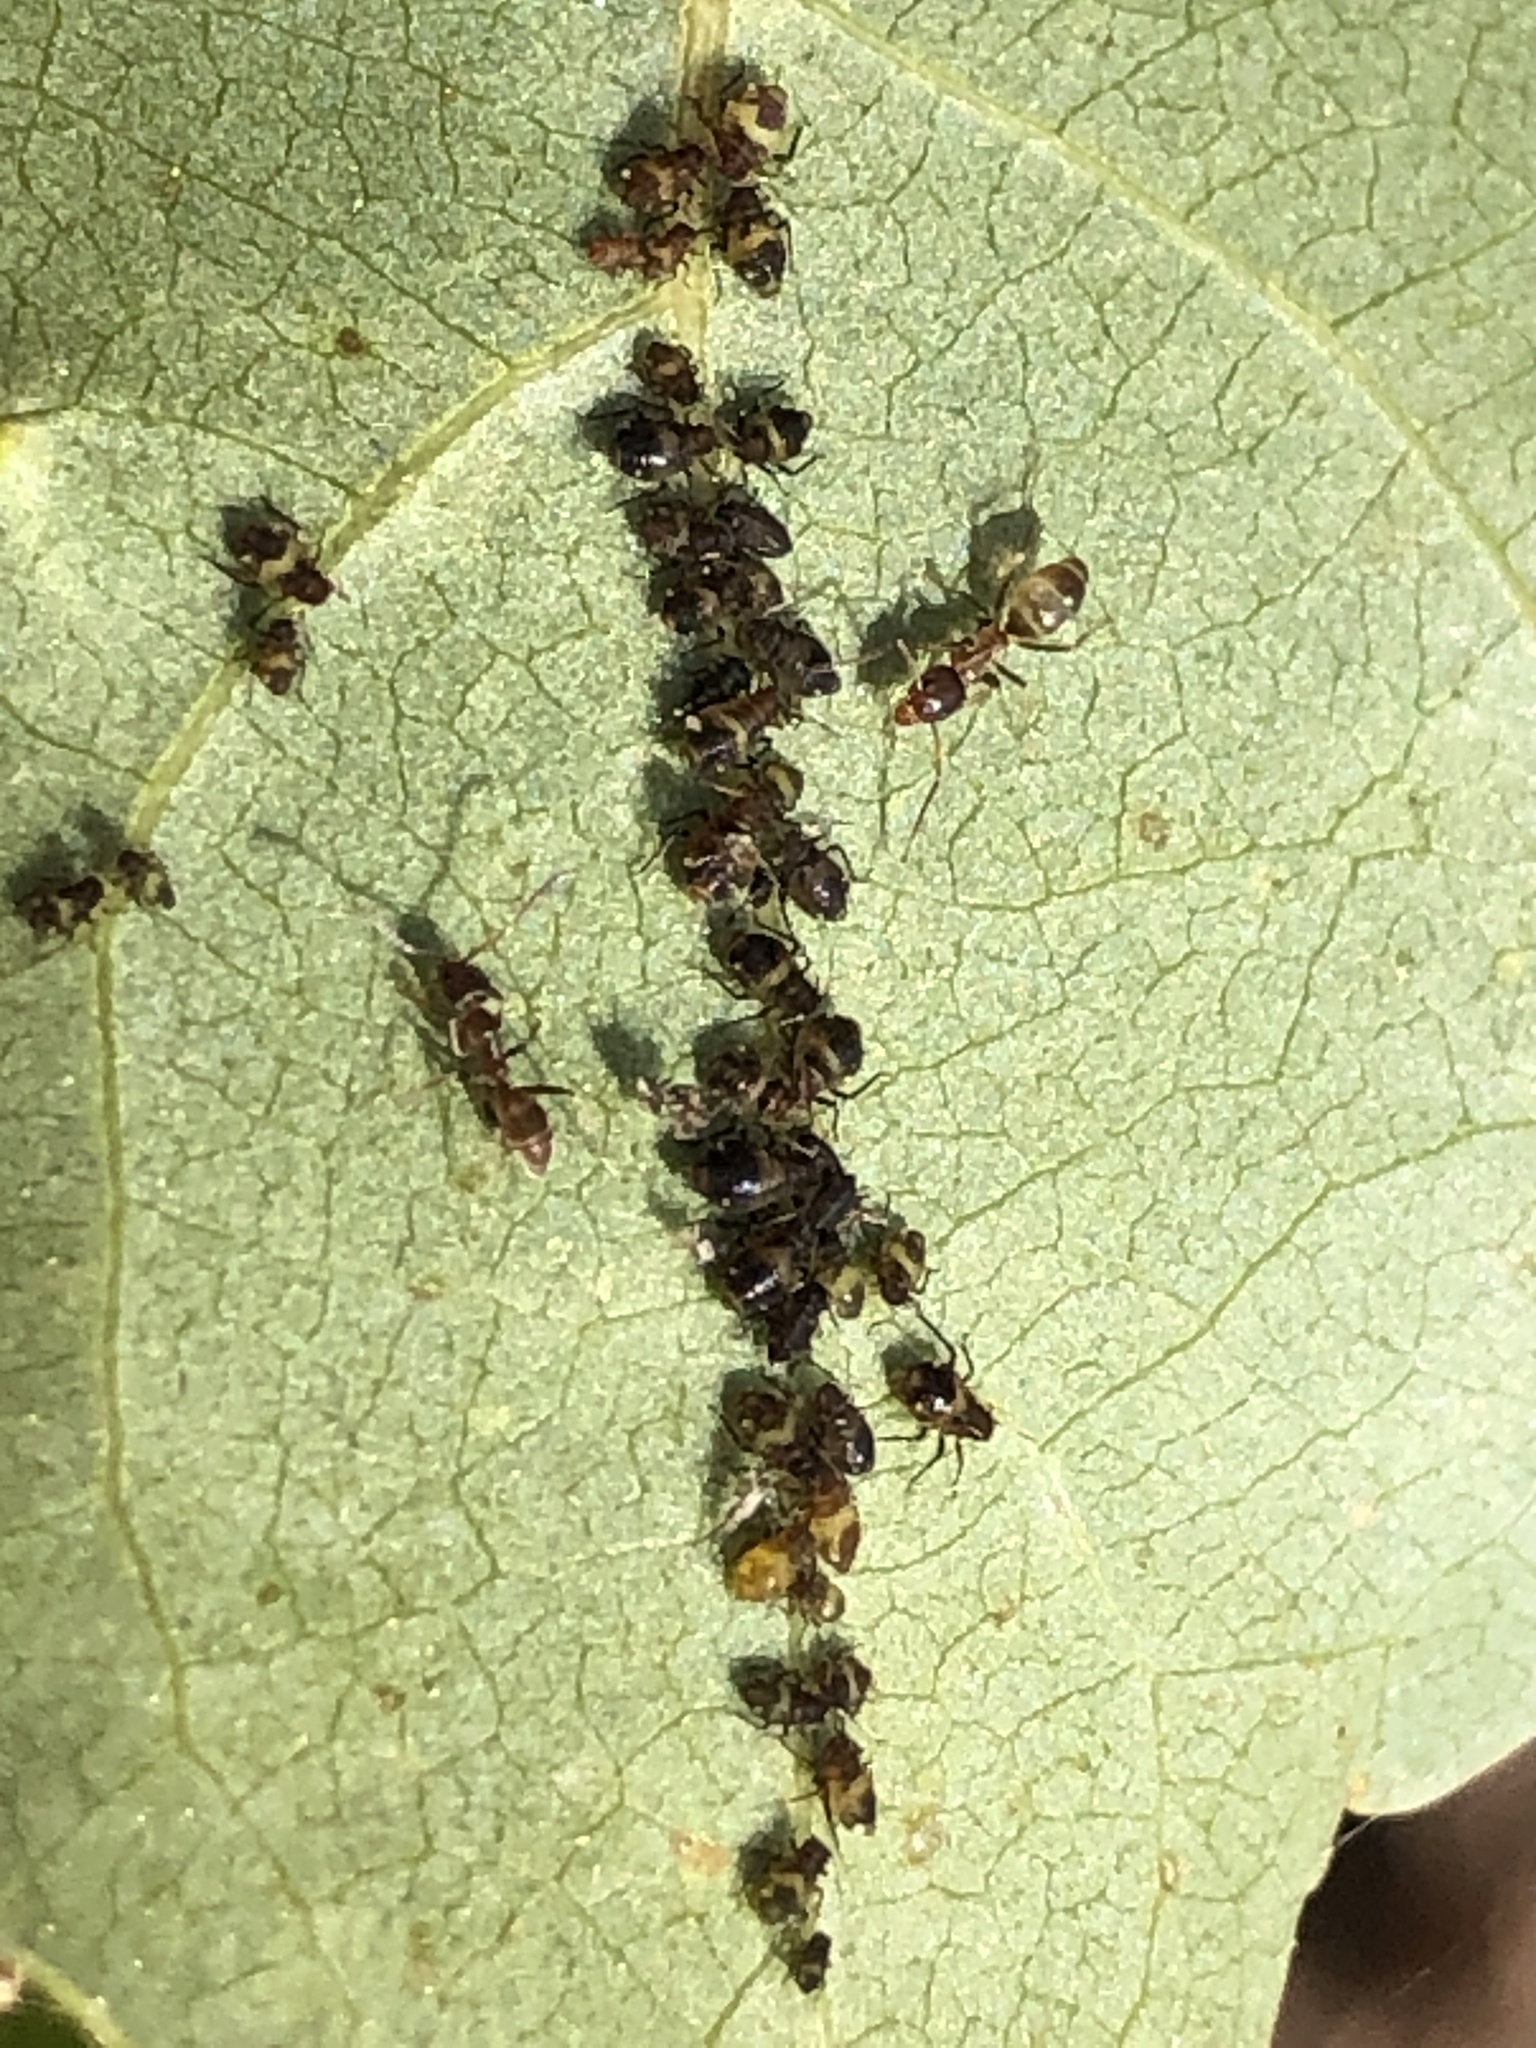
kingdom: Animalia
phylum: Arthropoda
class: Insecta
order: Hemiptera
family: Aphididae
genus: Chaitophorus
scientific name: Chaitophorus populicola
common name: Smokywinged poplar aphid
